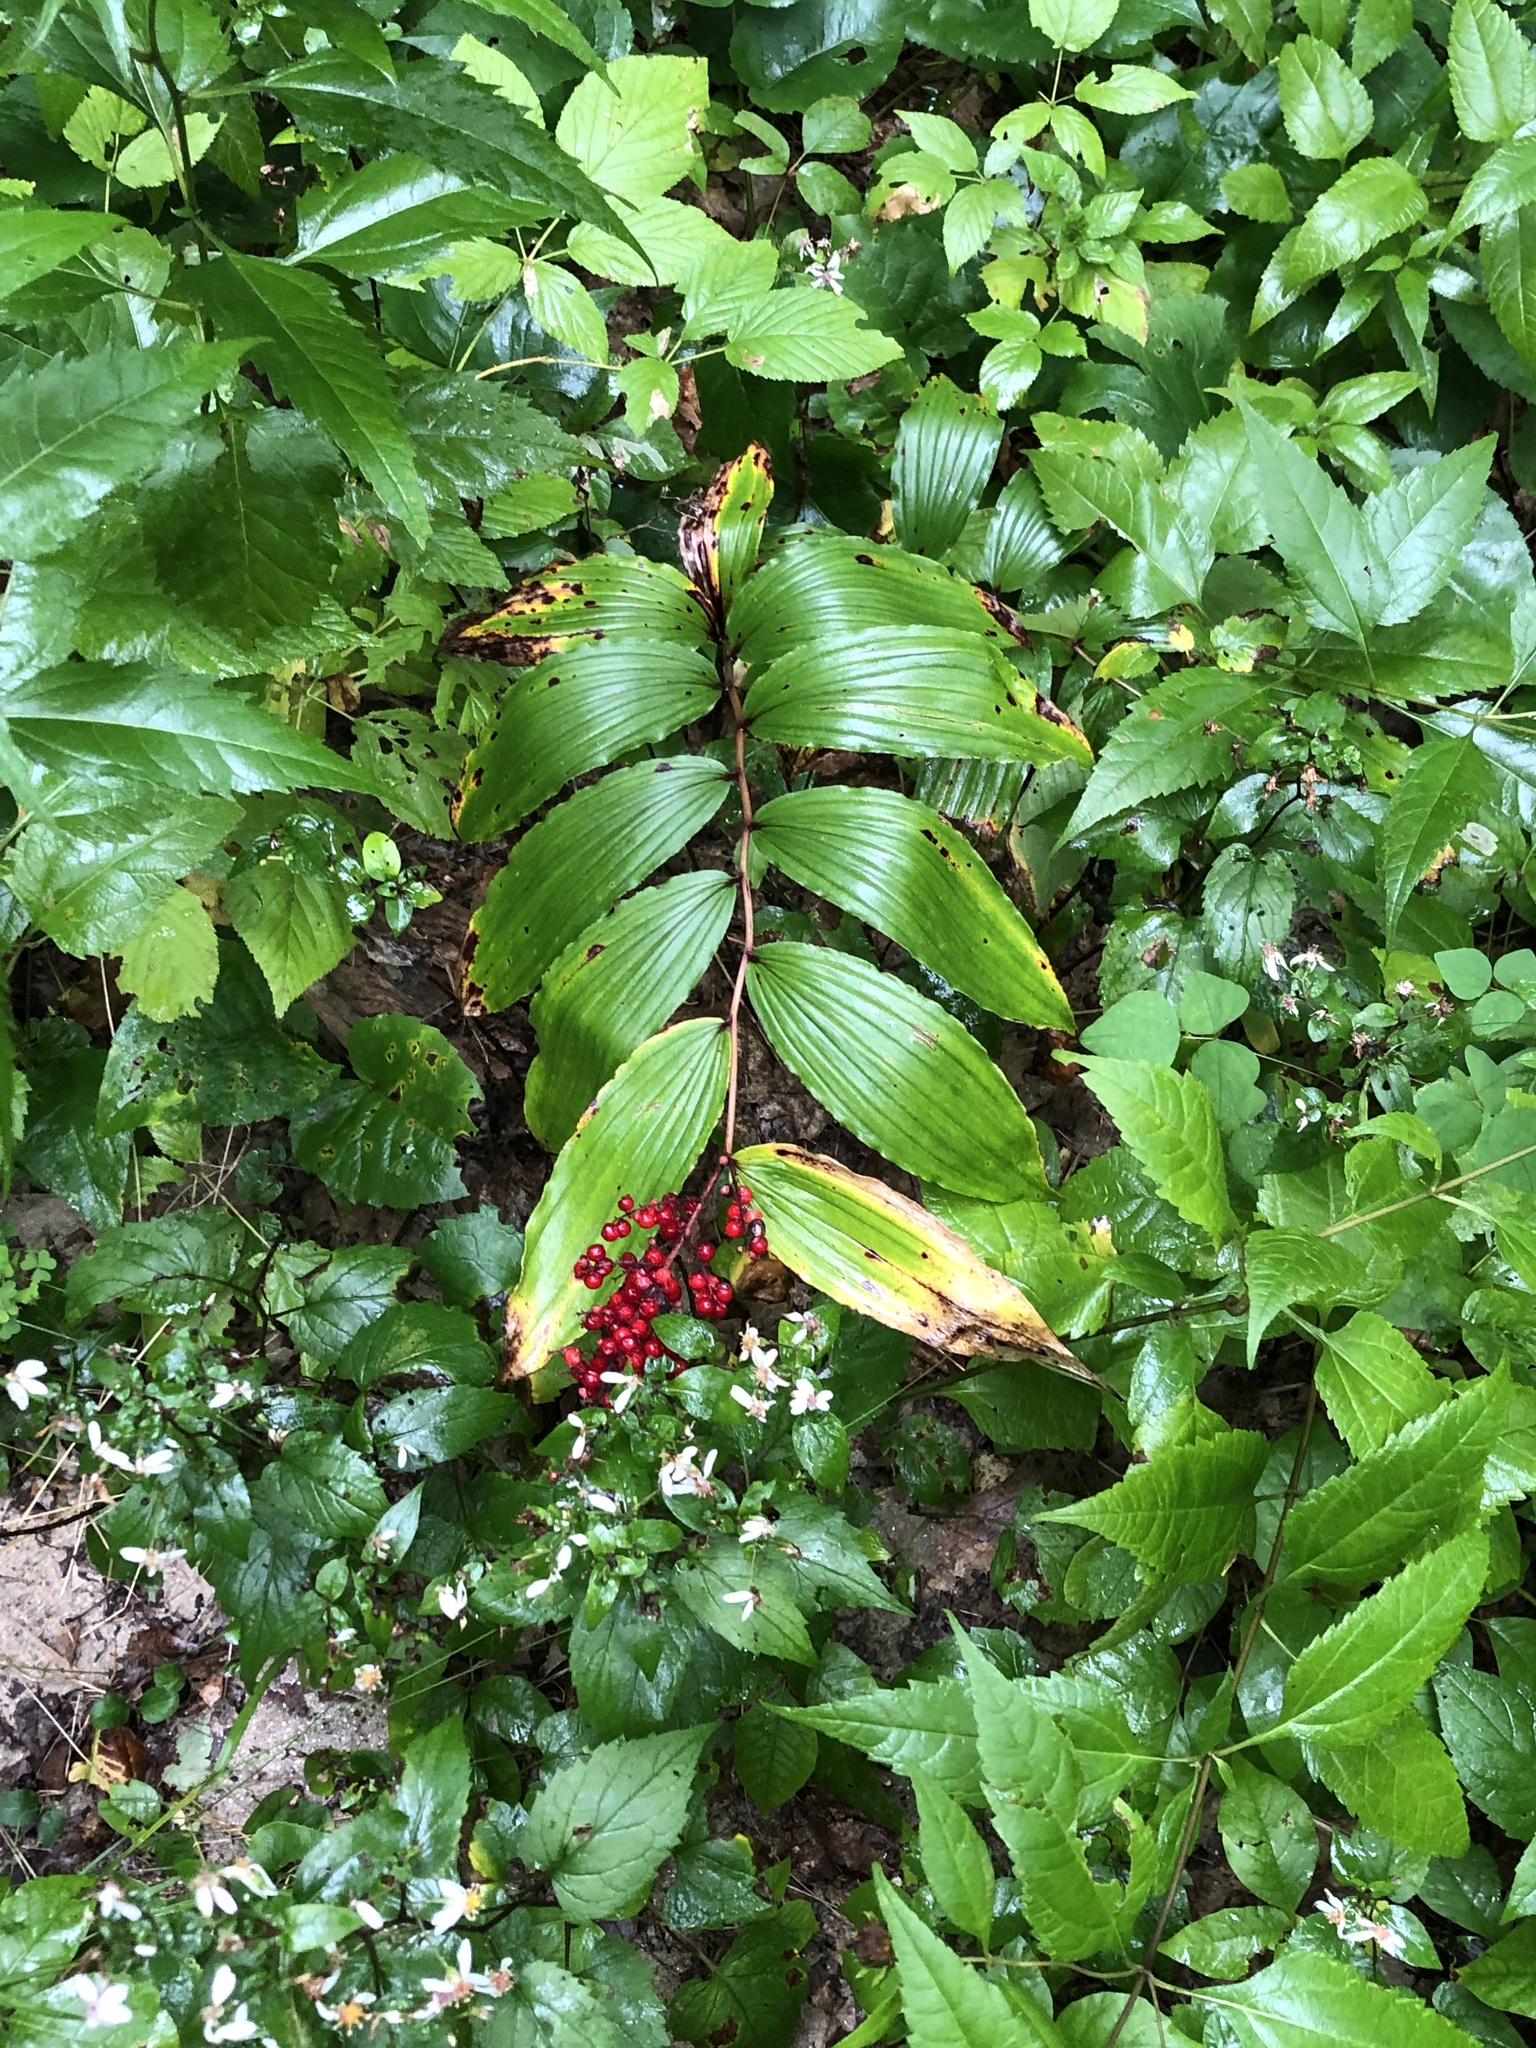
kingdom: Plantae
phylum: Tracheophyta
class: Liliopsida
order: Asparagales
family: Asparagaceae
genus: Maianthemum
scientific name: Maianthemum racemosum
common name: False spikenard
